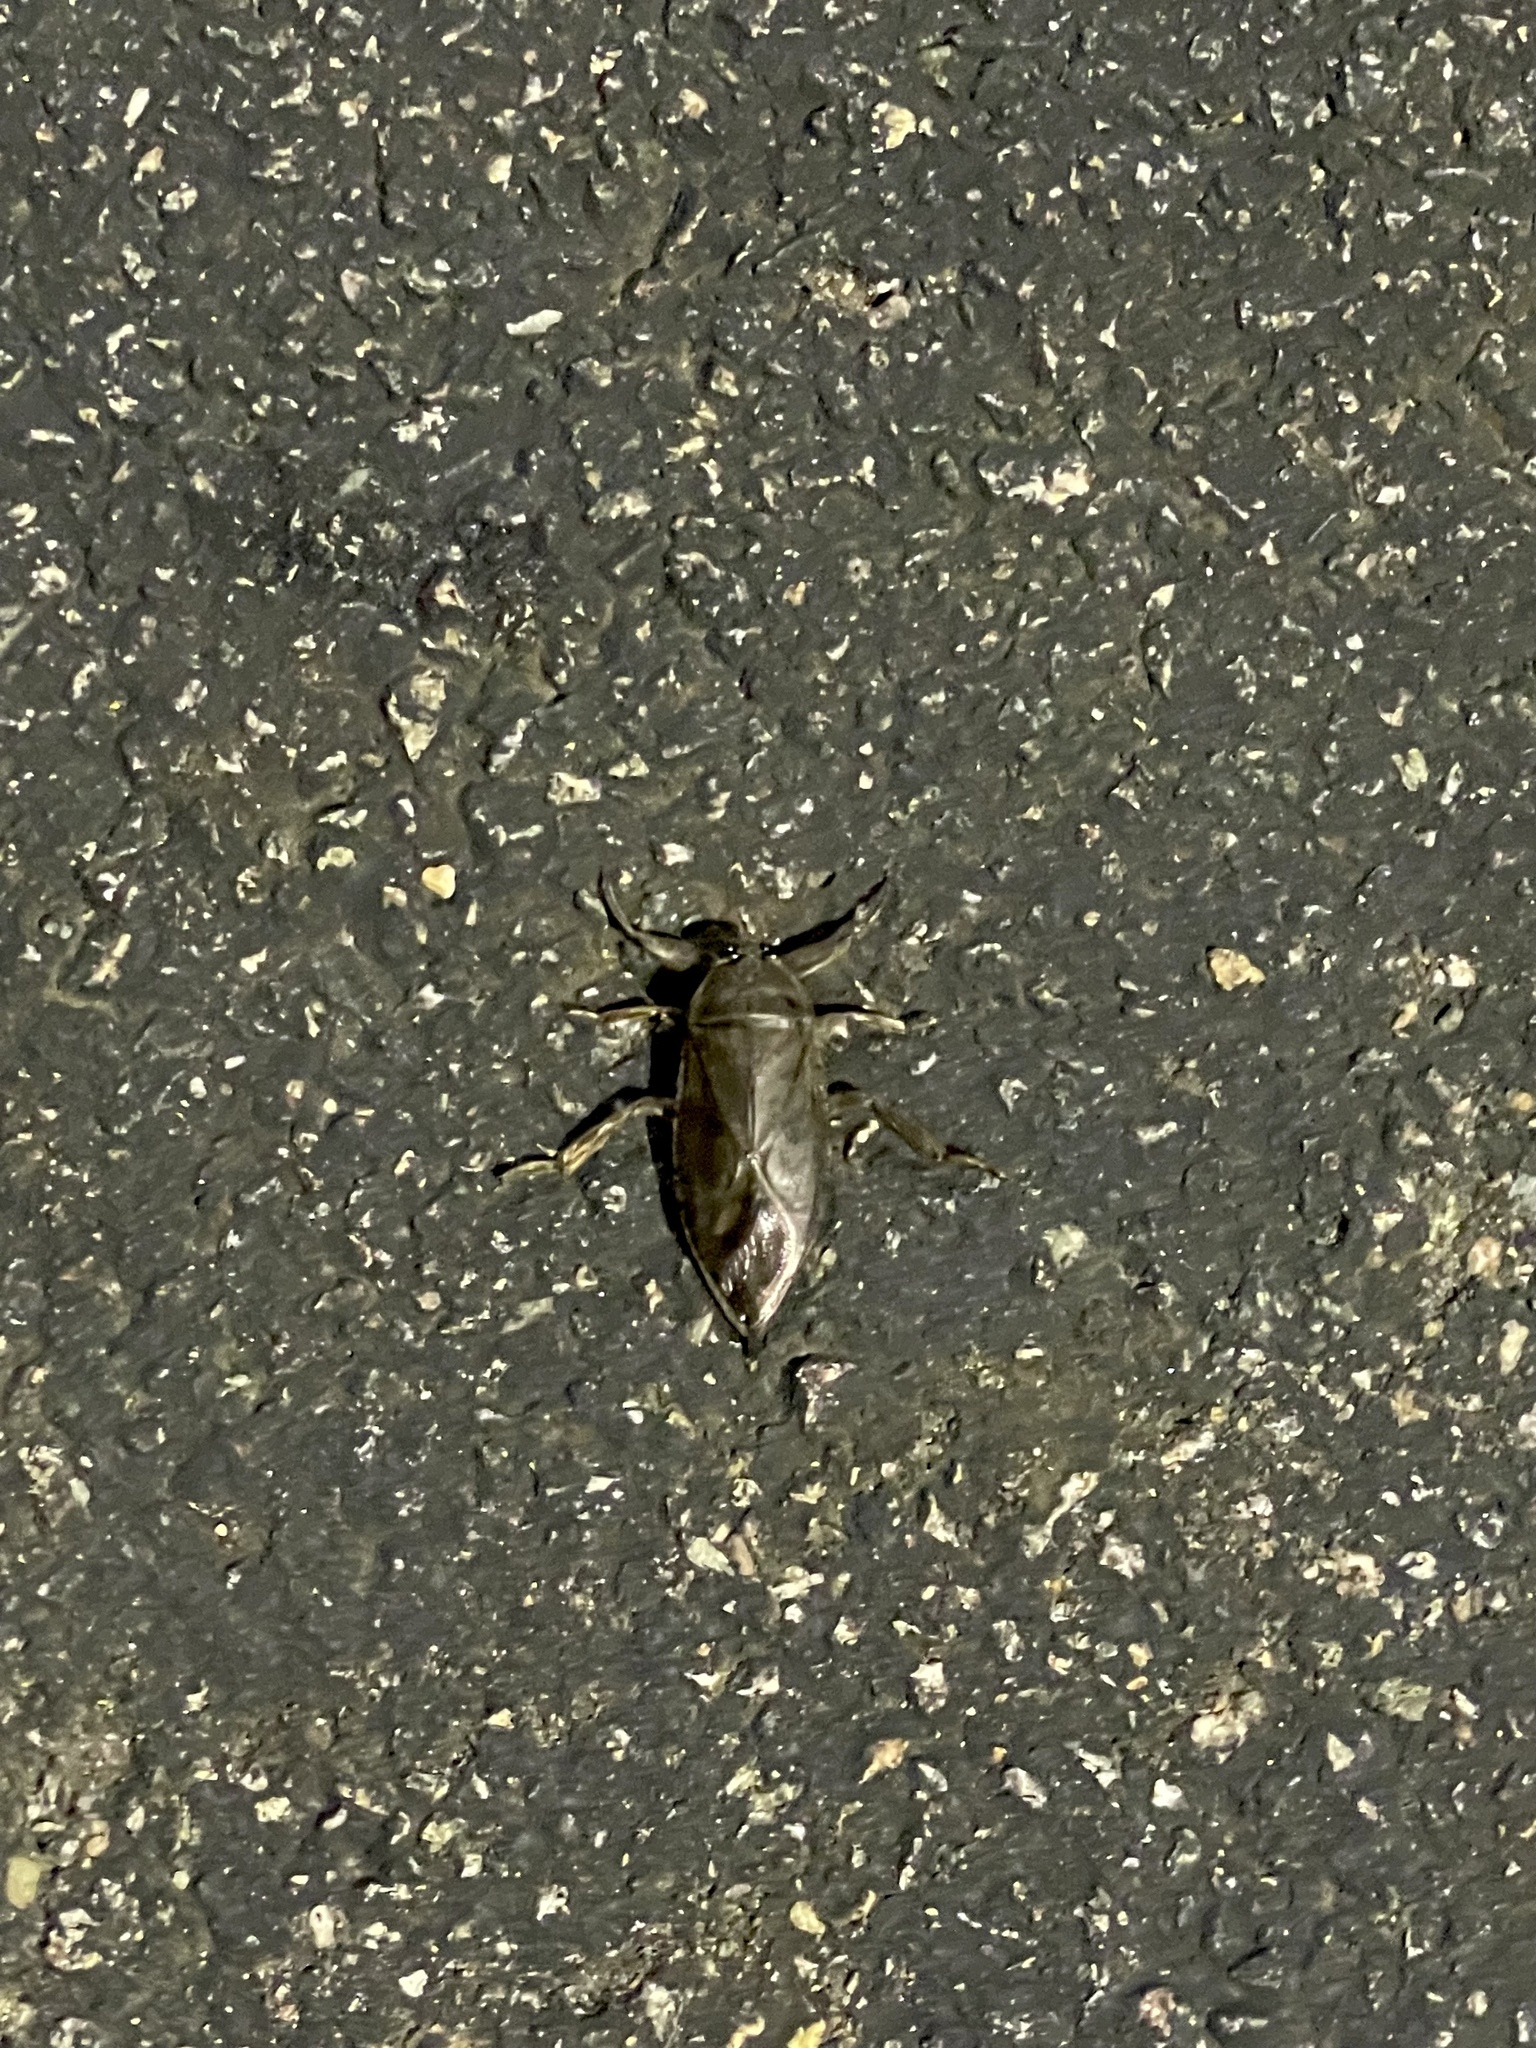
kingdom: Animalia
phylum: Arthropoda
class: Insecta
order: Hemiptera
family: Belostomatidae
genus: Lethocerus
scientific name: Lethocerus americanus
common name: Giant water bug
